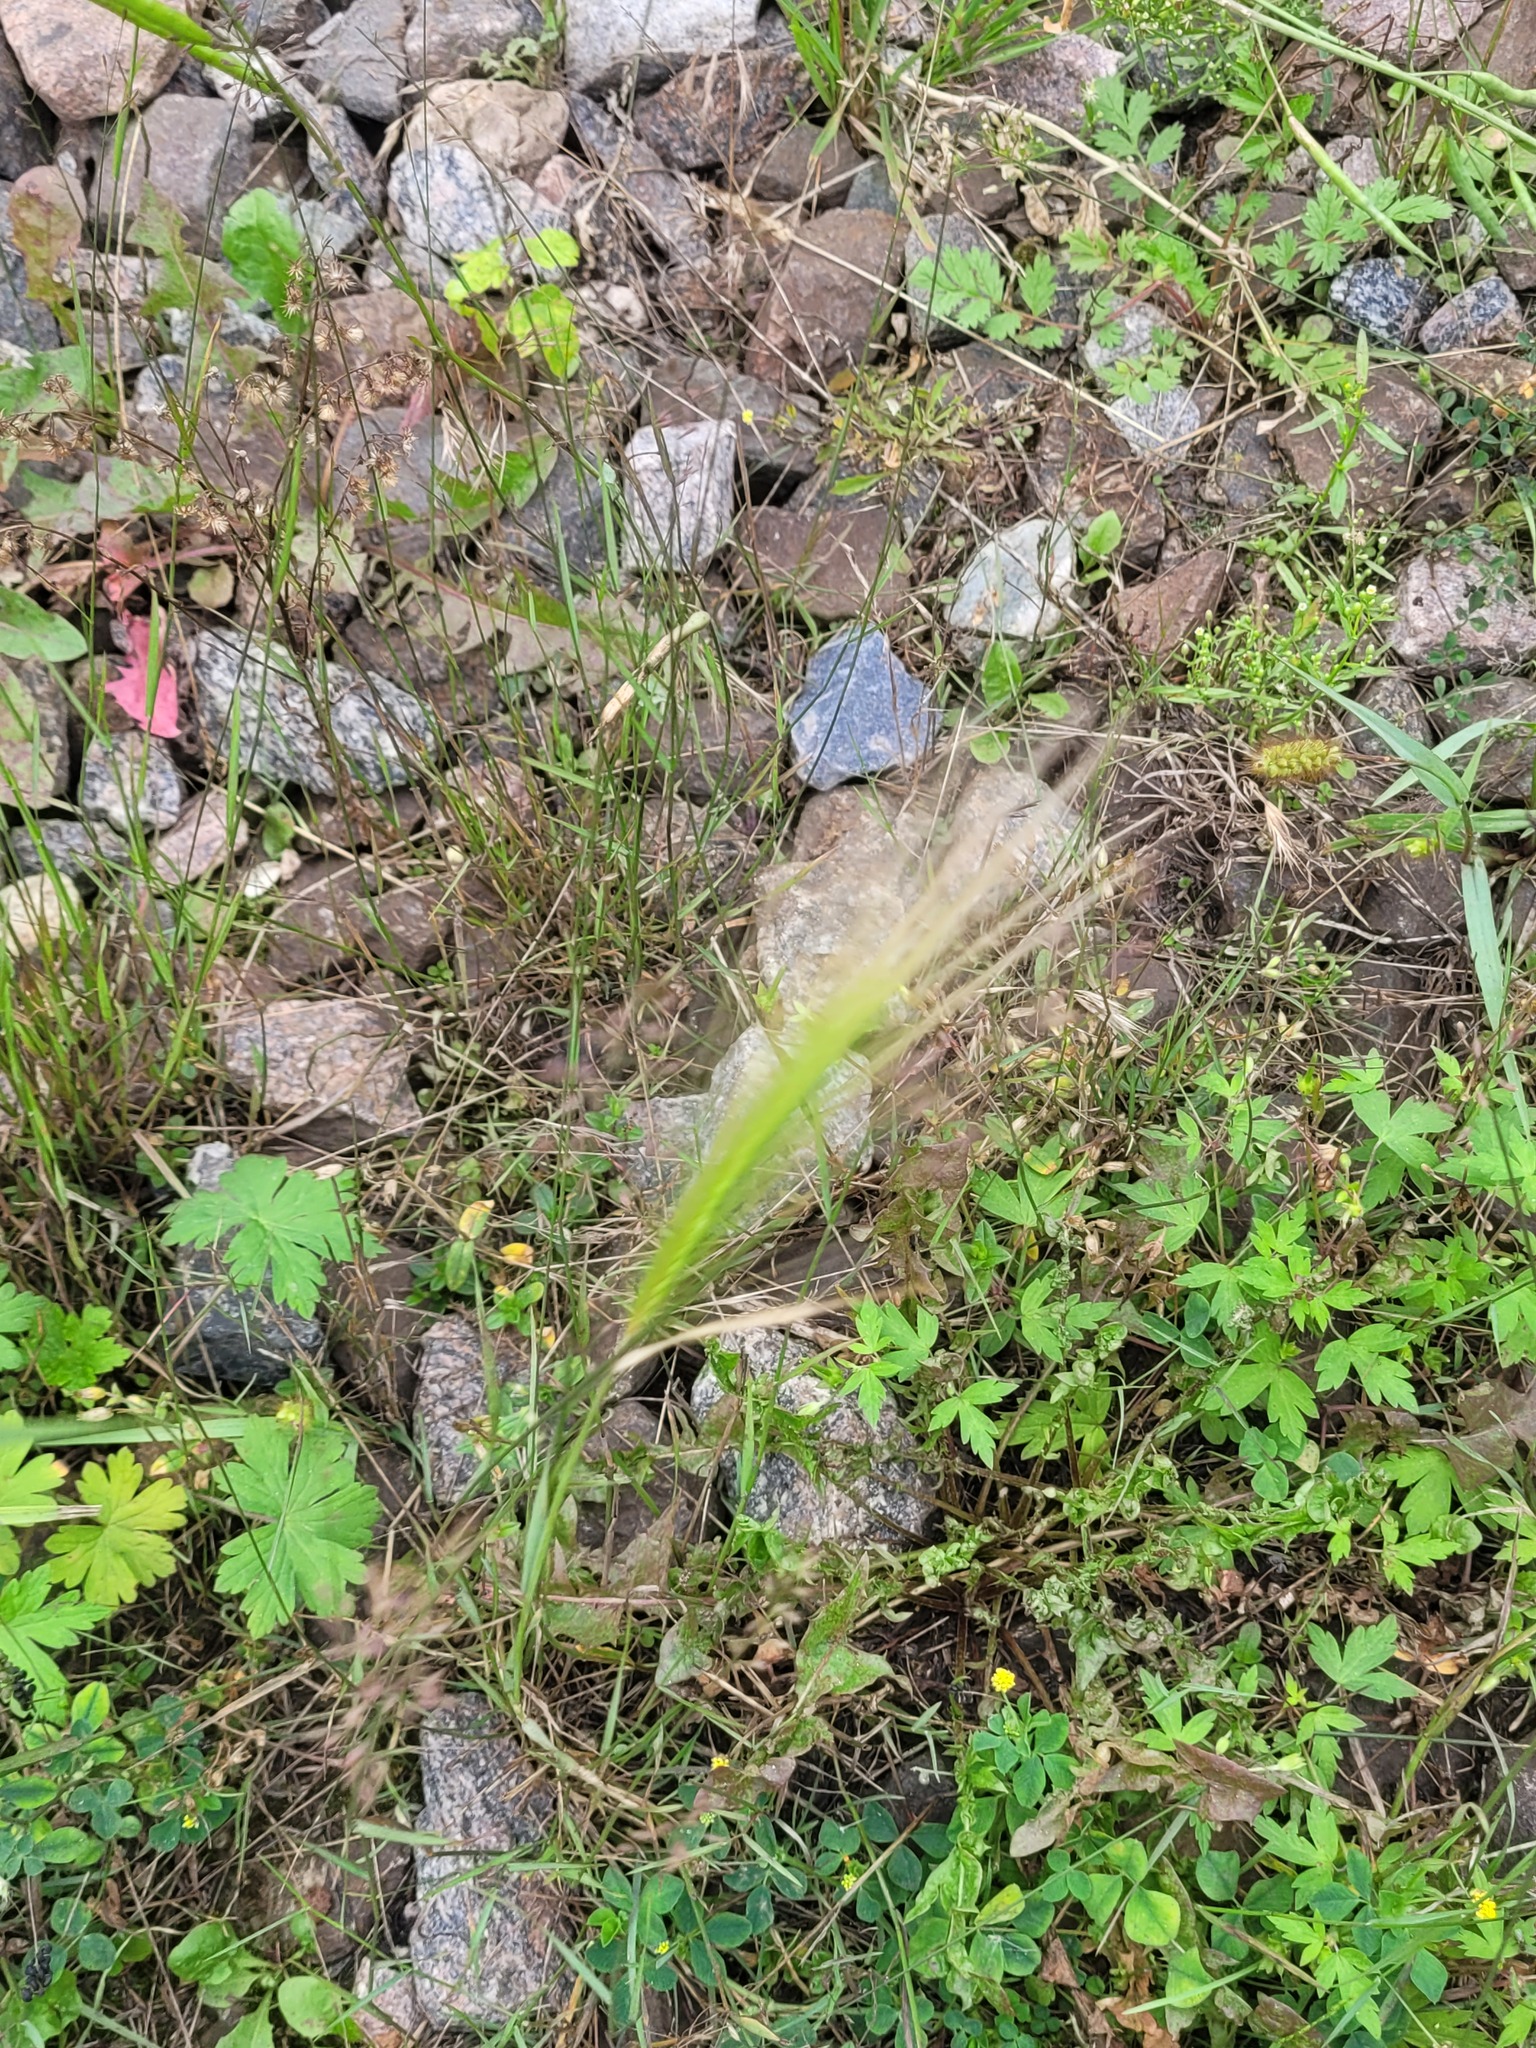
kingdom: Plantae
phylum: Tracheophyta
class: Liliopsida
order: Poales
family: Poaceae
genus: Hordeum
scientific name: Hordeum jubatum
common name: Foxtail barley
